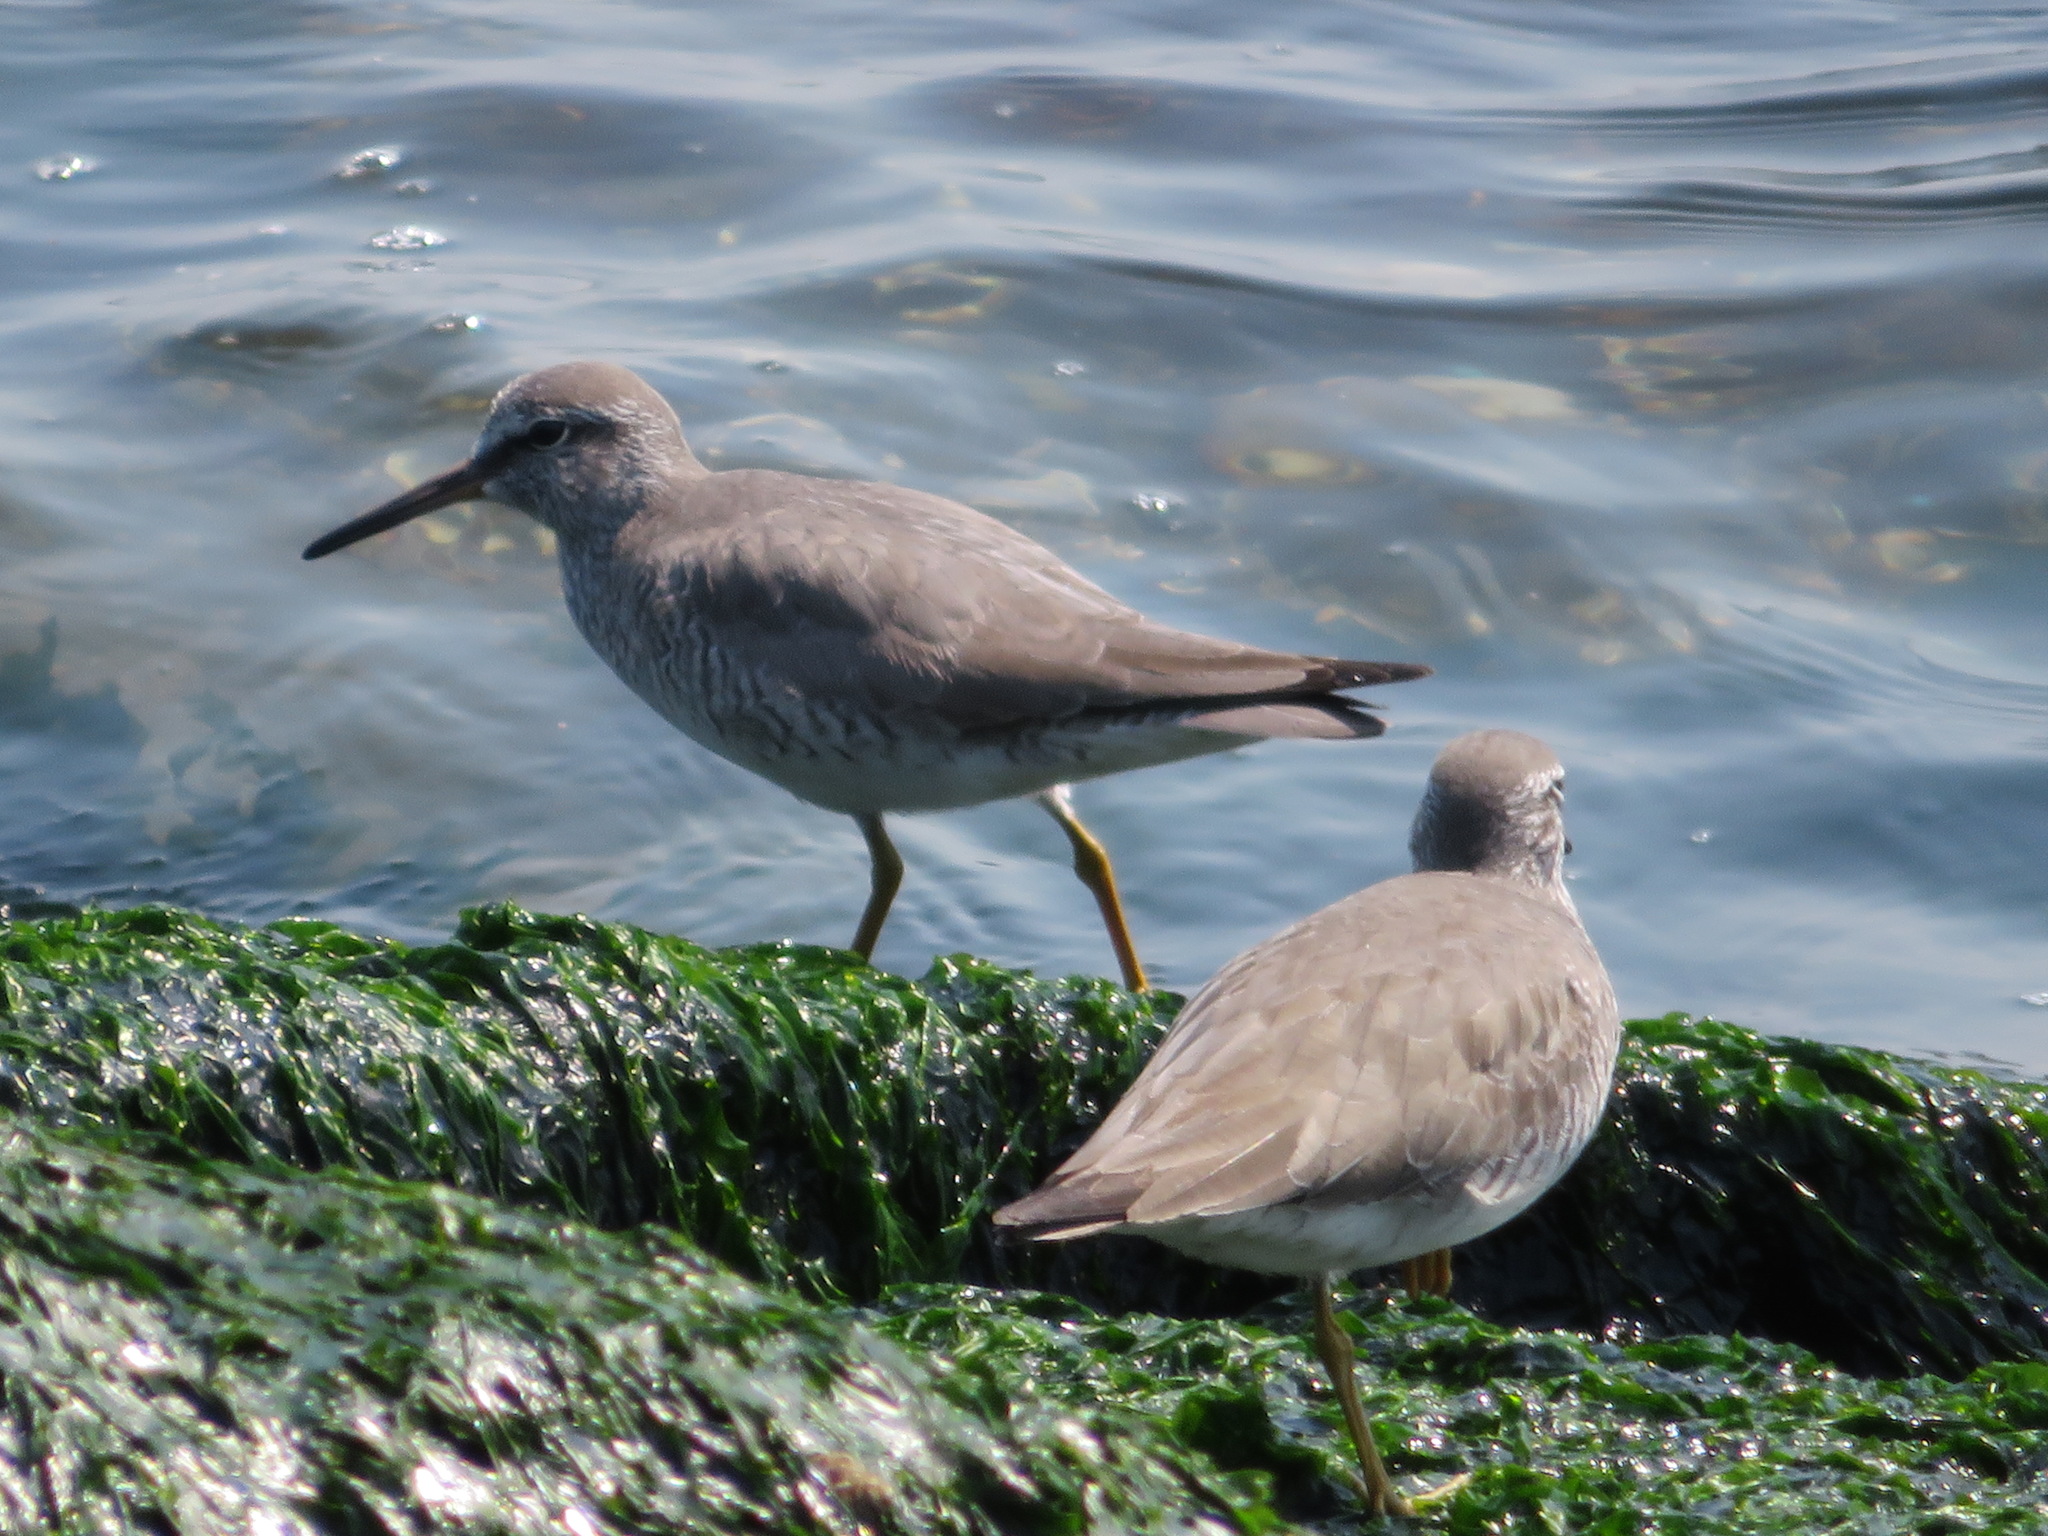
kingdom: Animalia
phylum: Chordata
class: Aves
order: Charadriiformes
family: Scolopacidae
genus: Tringa
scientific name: Tringa brevipes
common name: Grey-tailed tattler
